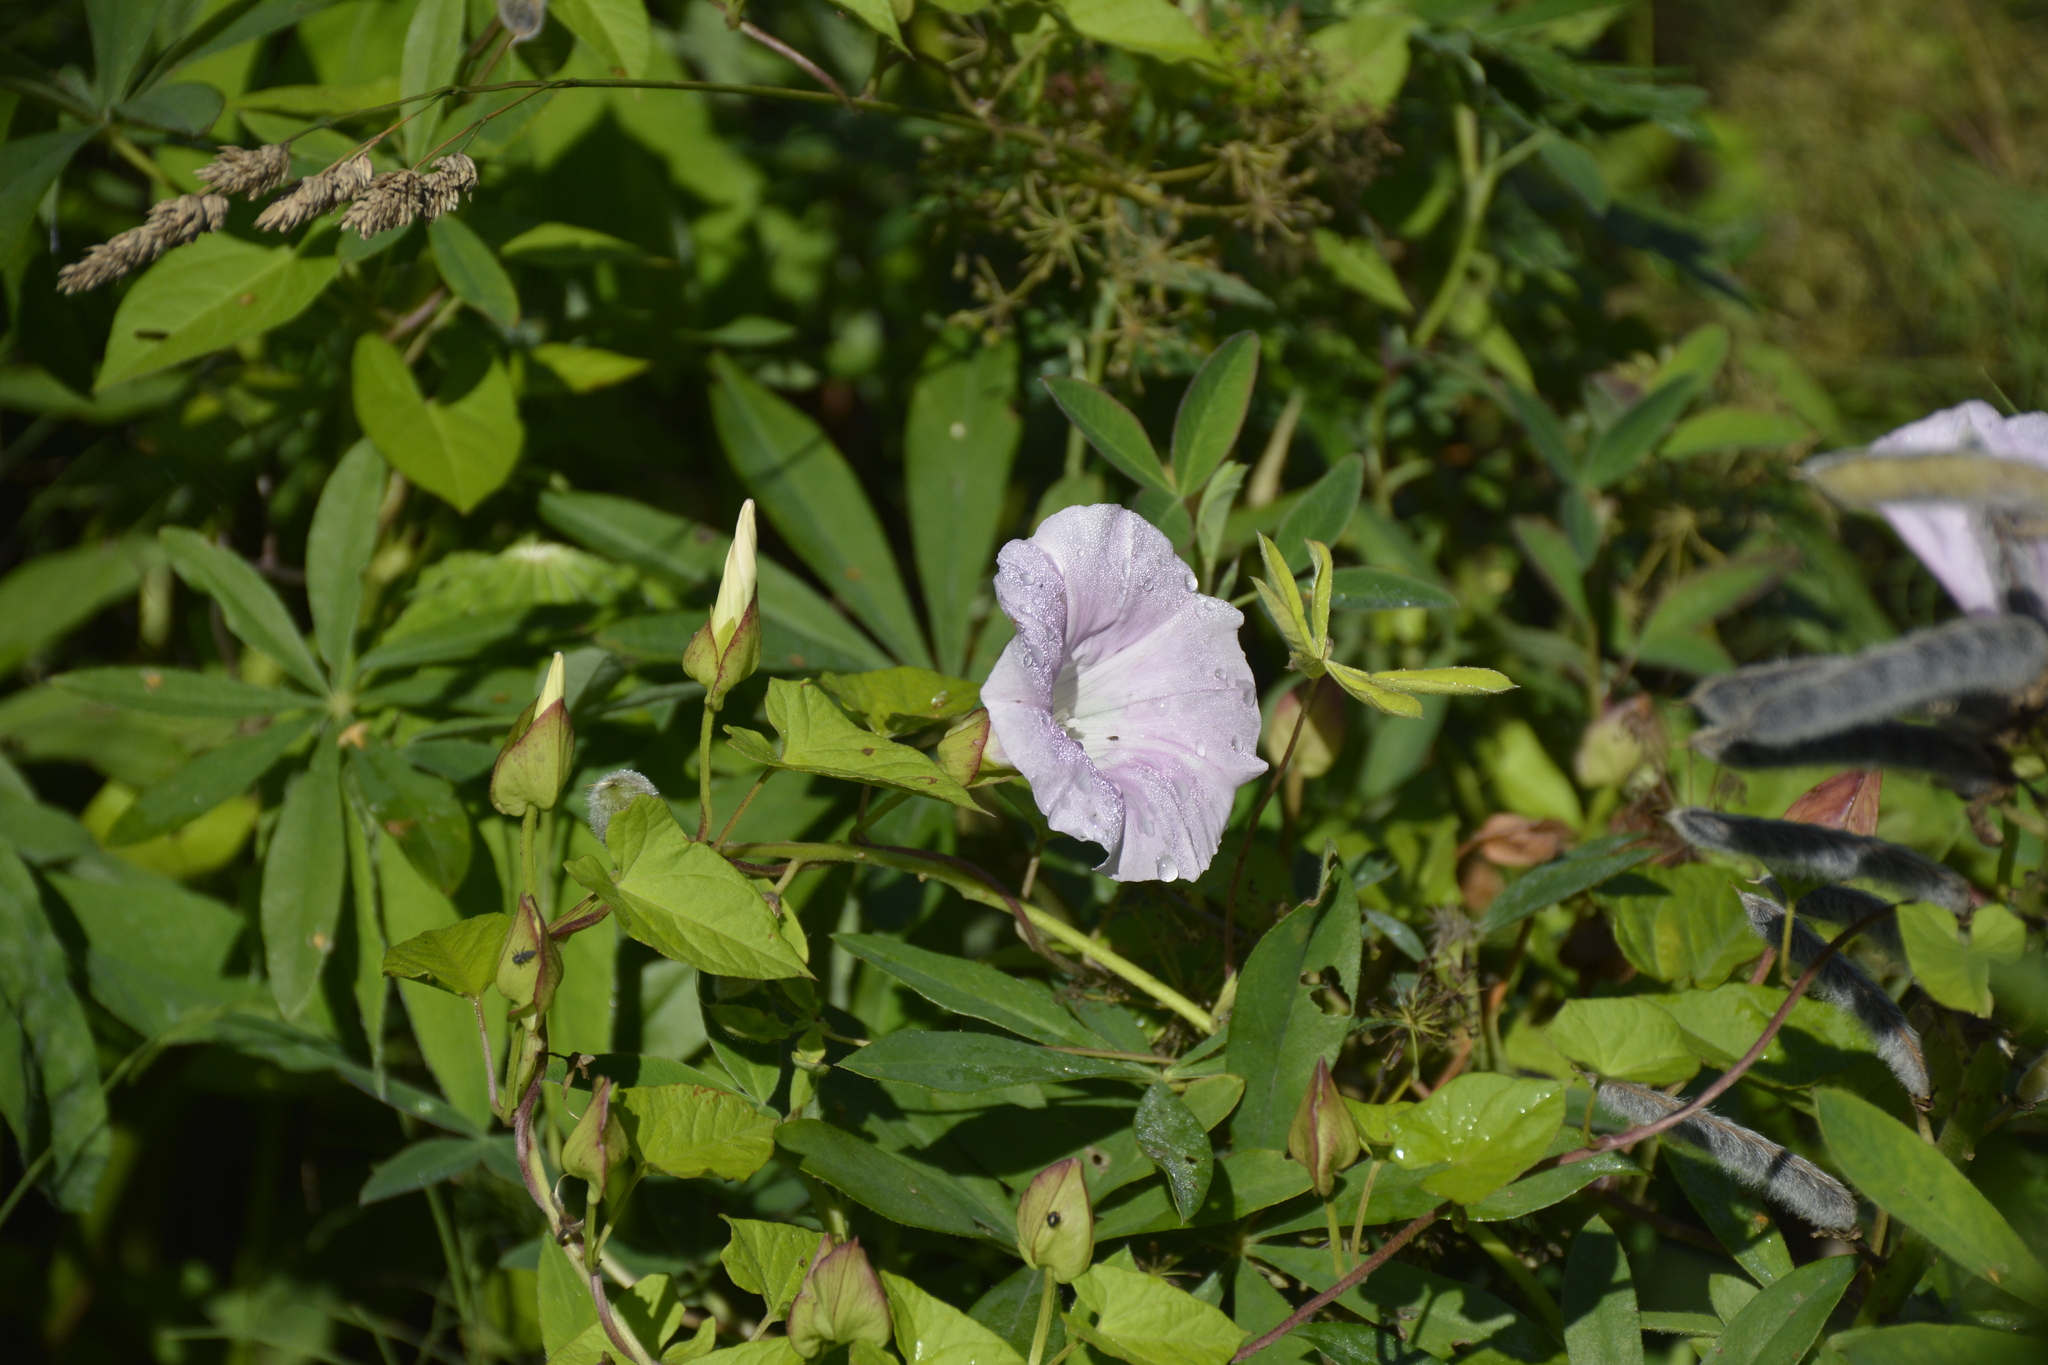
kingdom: Plantae
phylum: Tracheophyta
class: Magnoliopsida
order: Solanales
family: Convolvulaceae
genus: Calystegia
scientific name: Calystegia sepium
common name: Hedge bindweed
